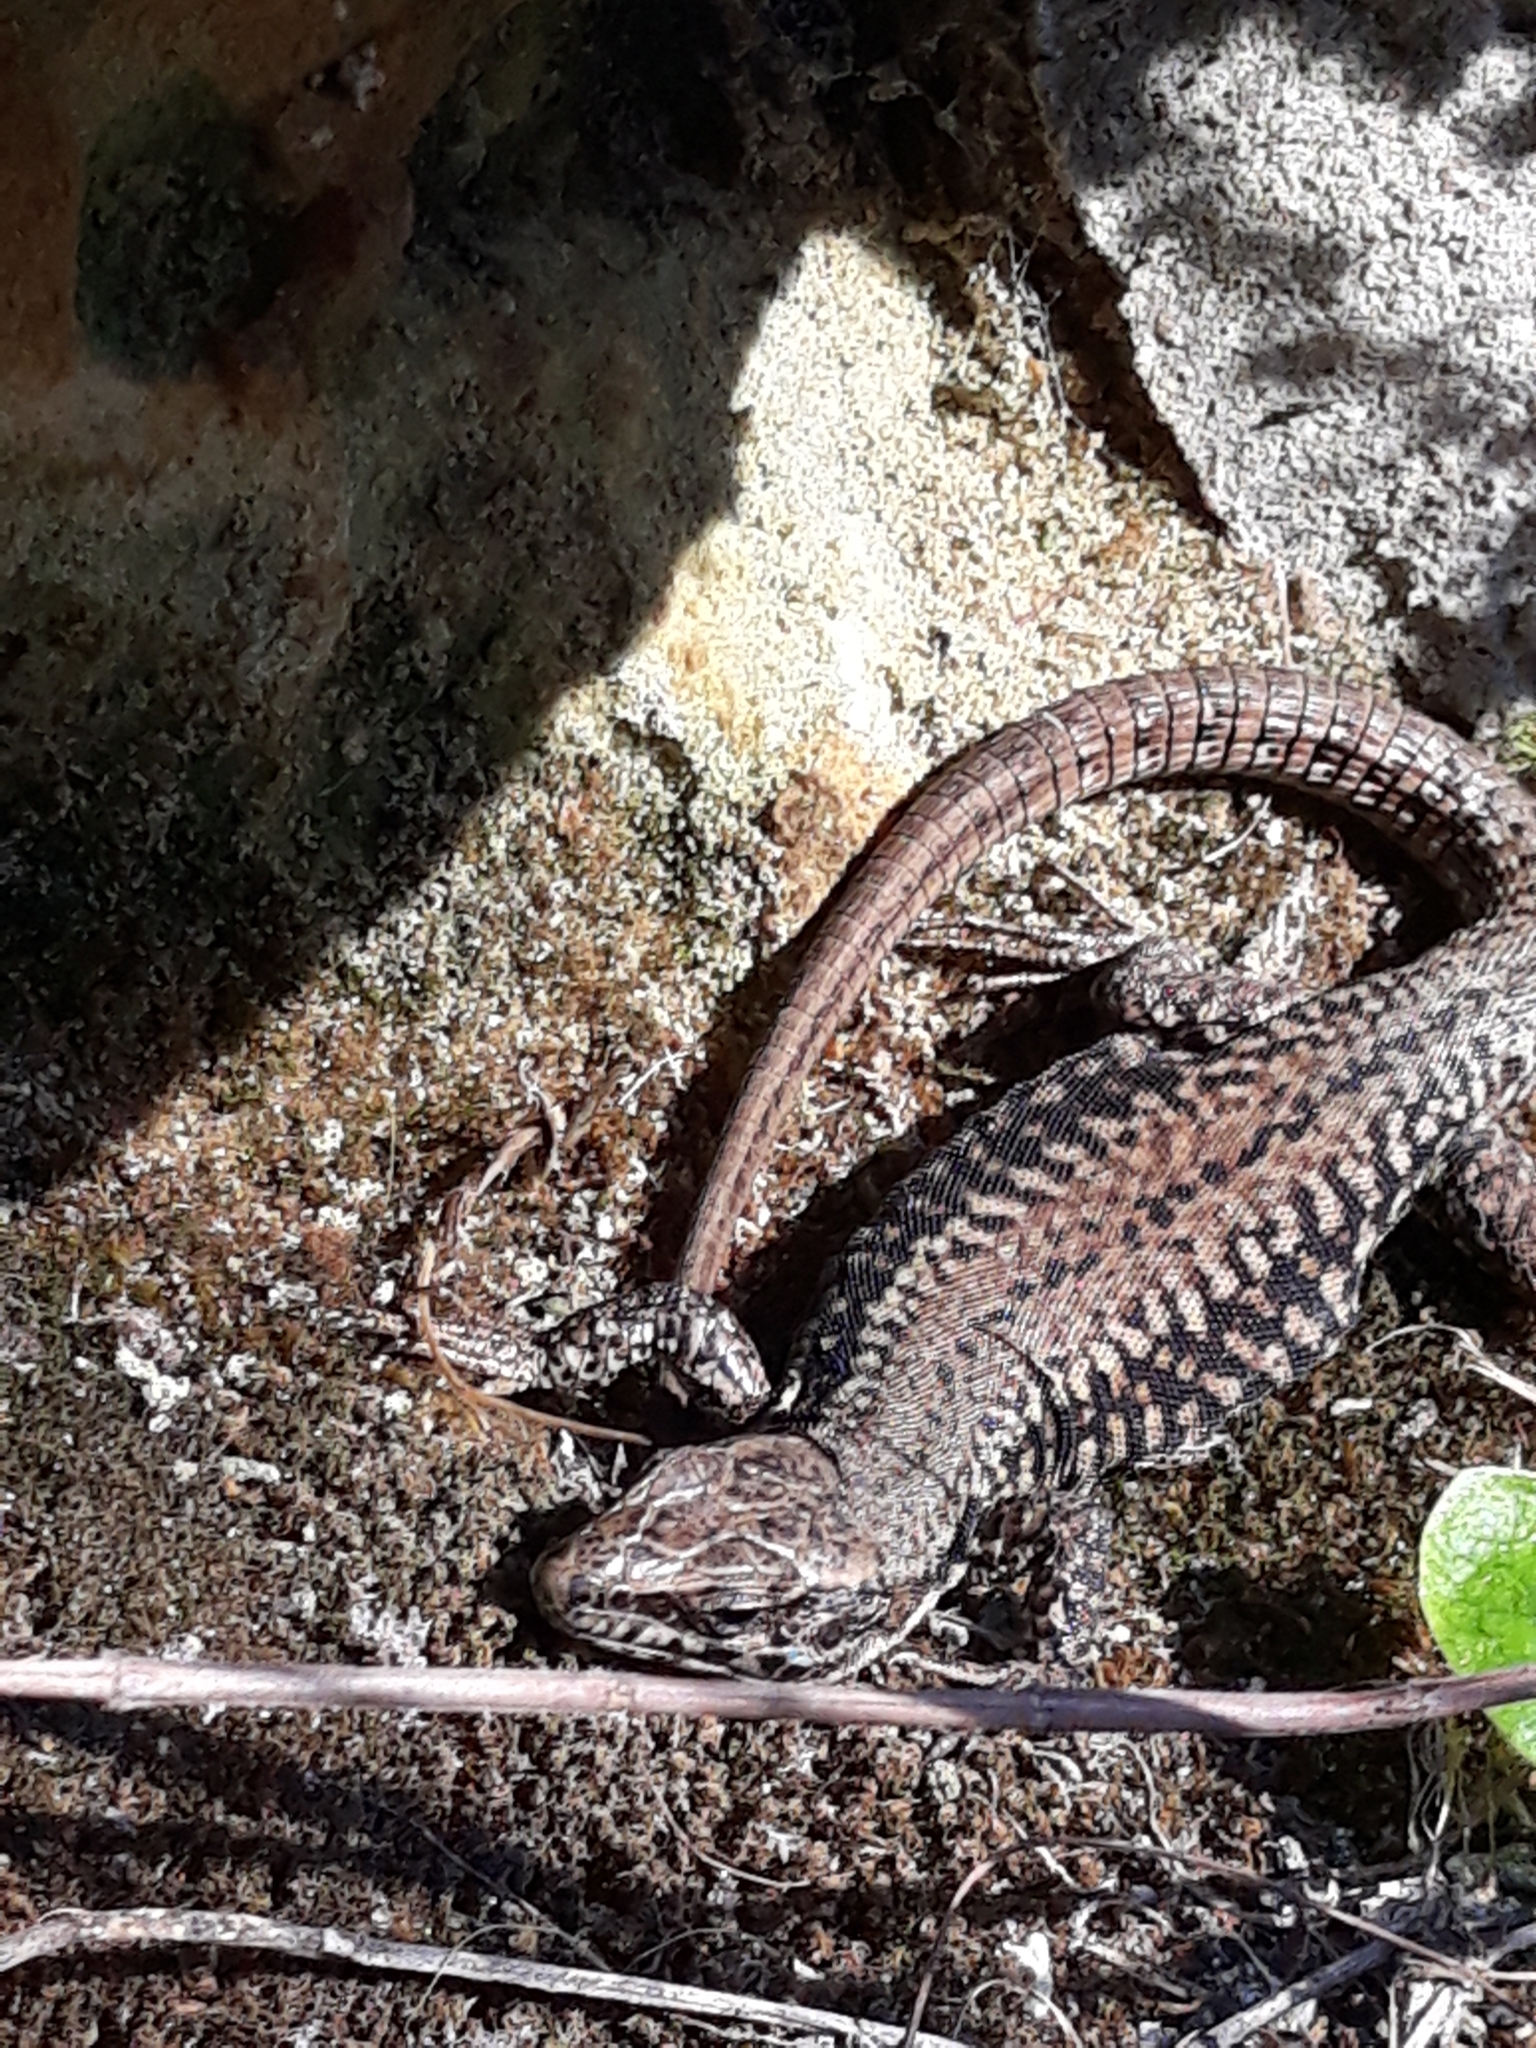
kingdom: Animalia
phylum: Chordata
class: Squamata
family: Lacertidae
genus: Podarcis
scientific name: Podarcis muralis
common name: Common wall lizard
